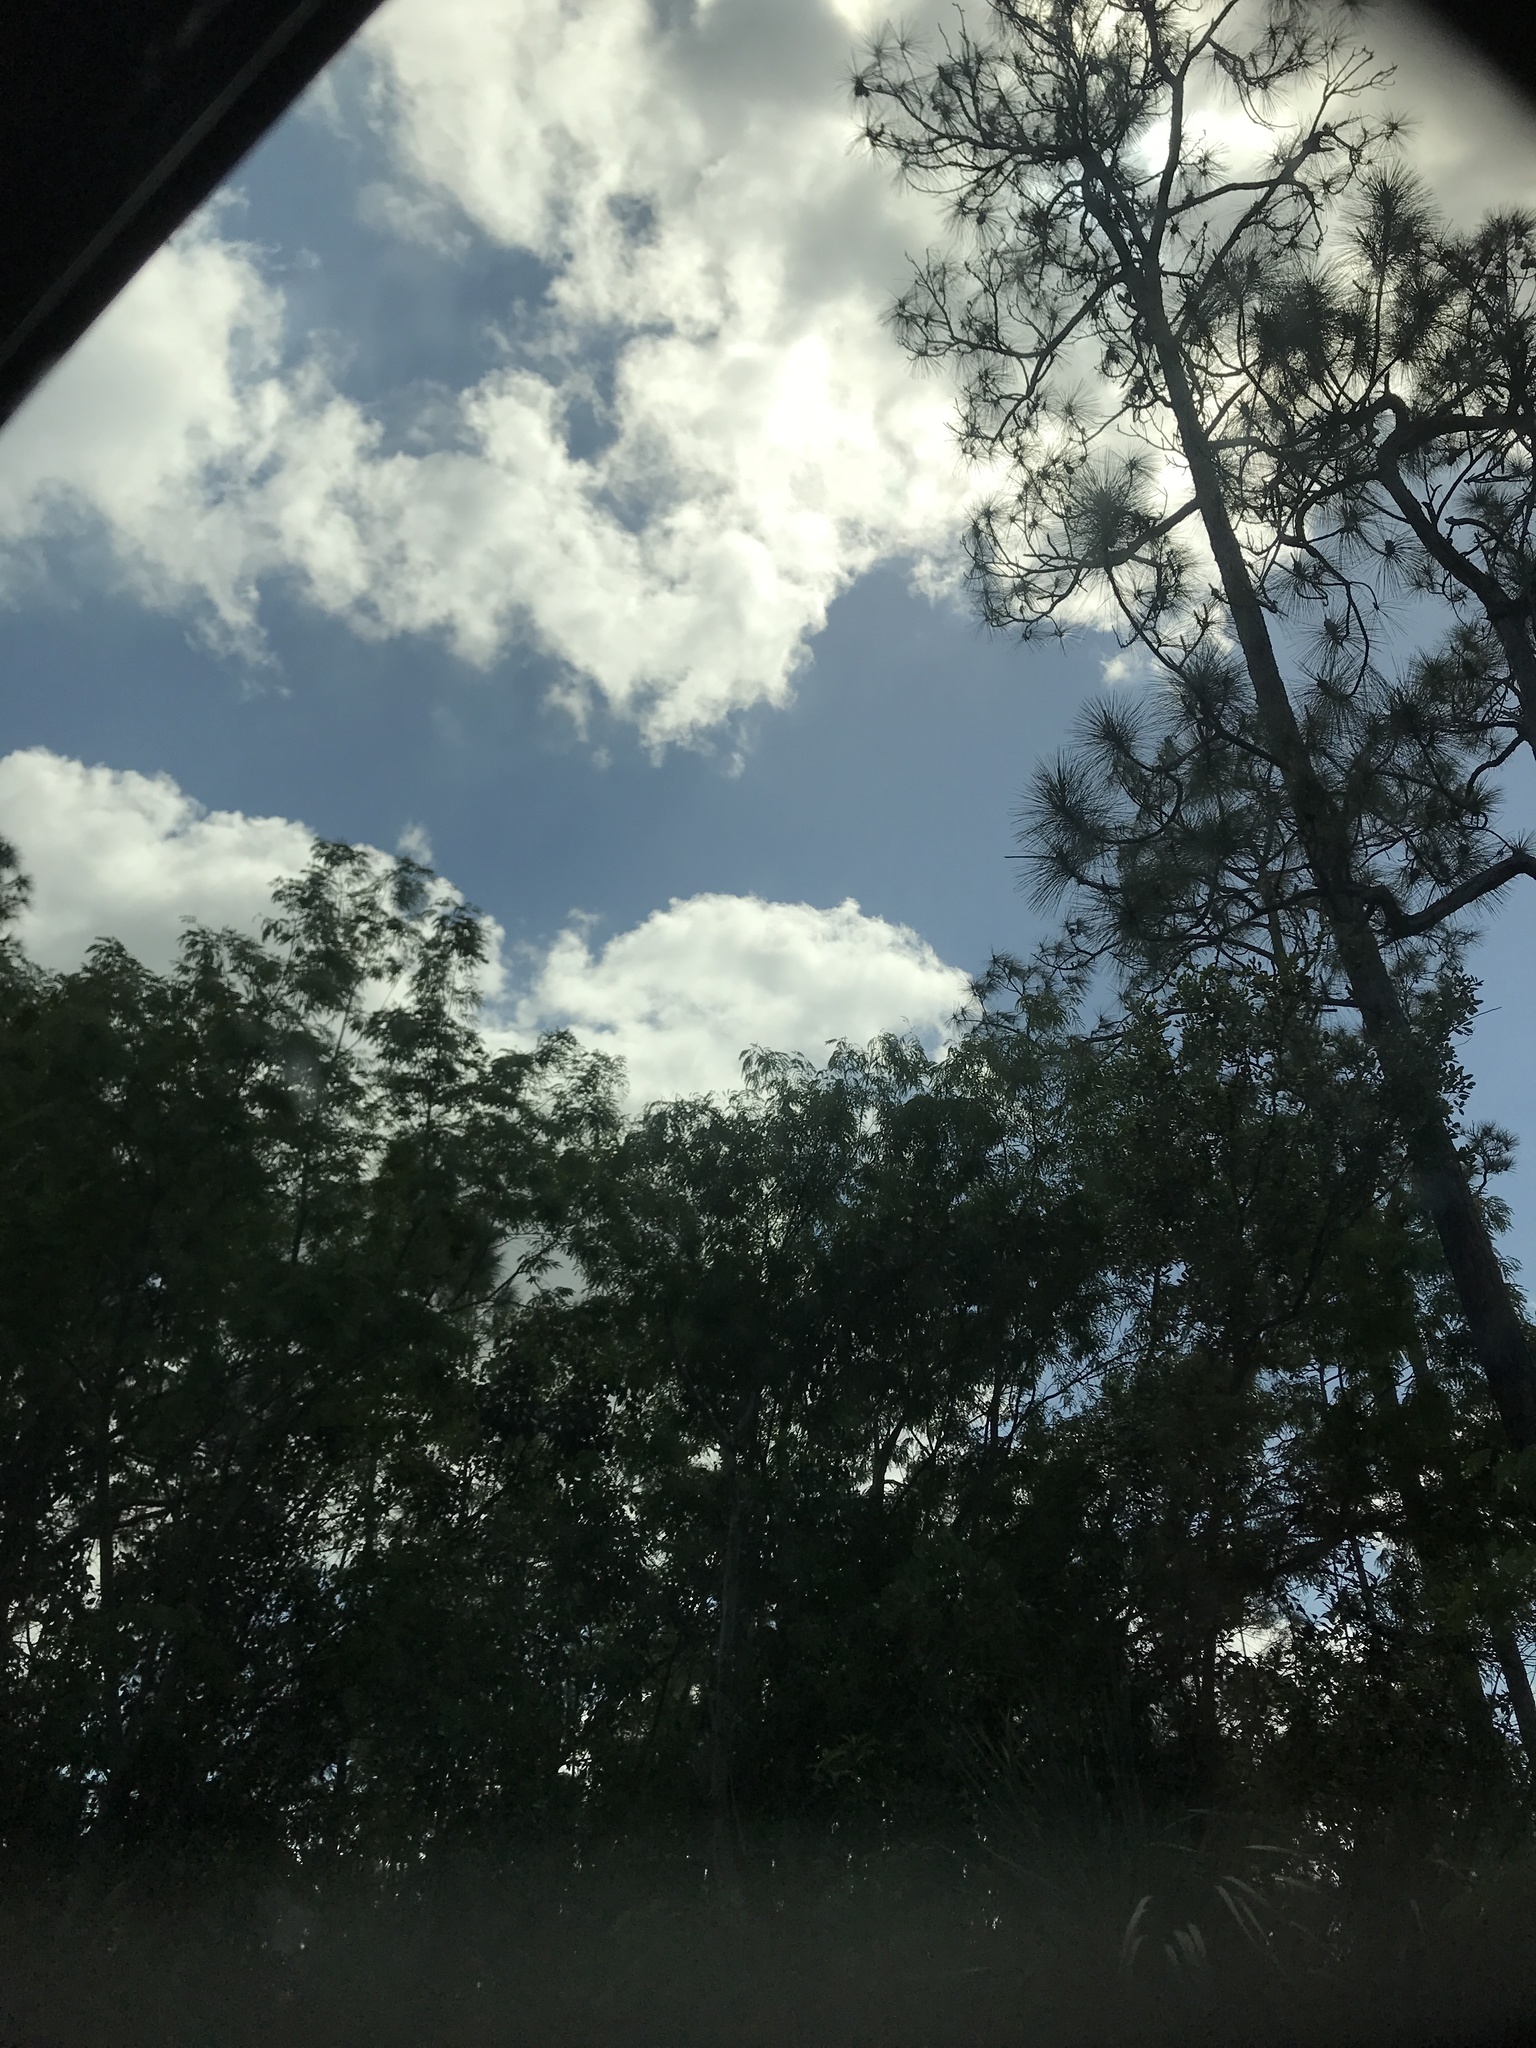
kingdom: Plantae
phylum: Tracheophyta
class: Pinopsida
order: Pinales
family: Pinaceae
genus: Pinus
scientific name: Pinus elliottii
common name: Slash pine
